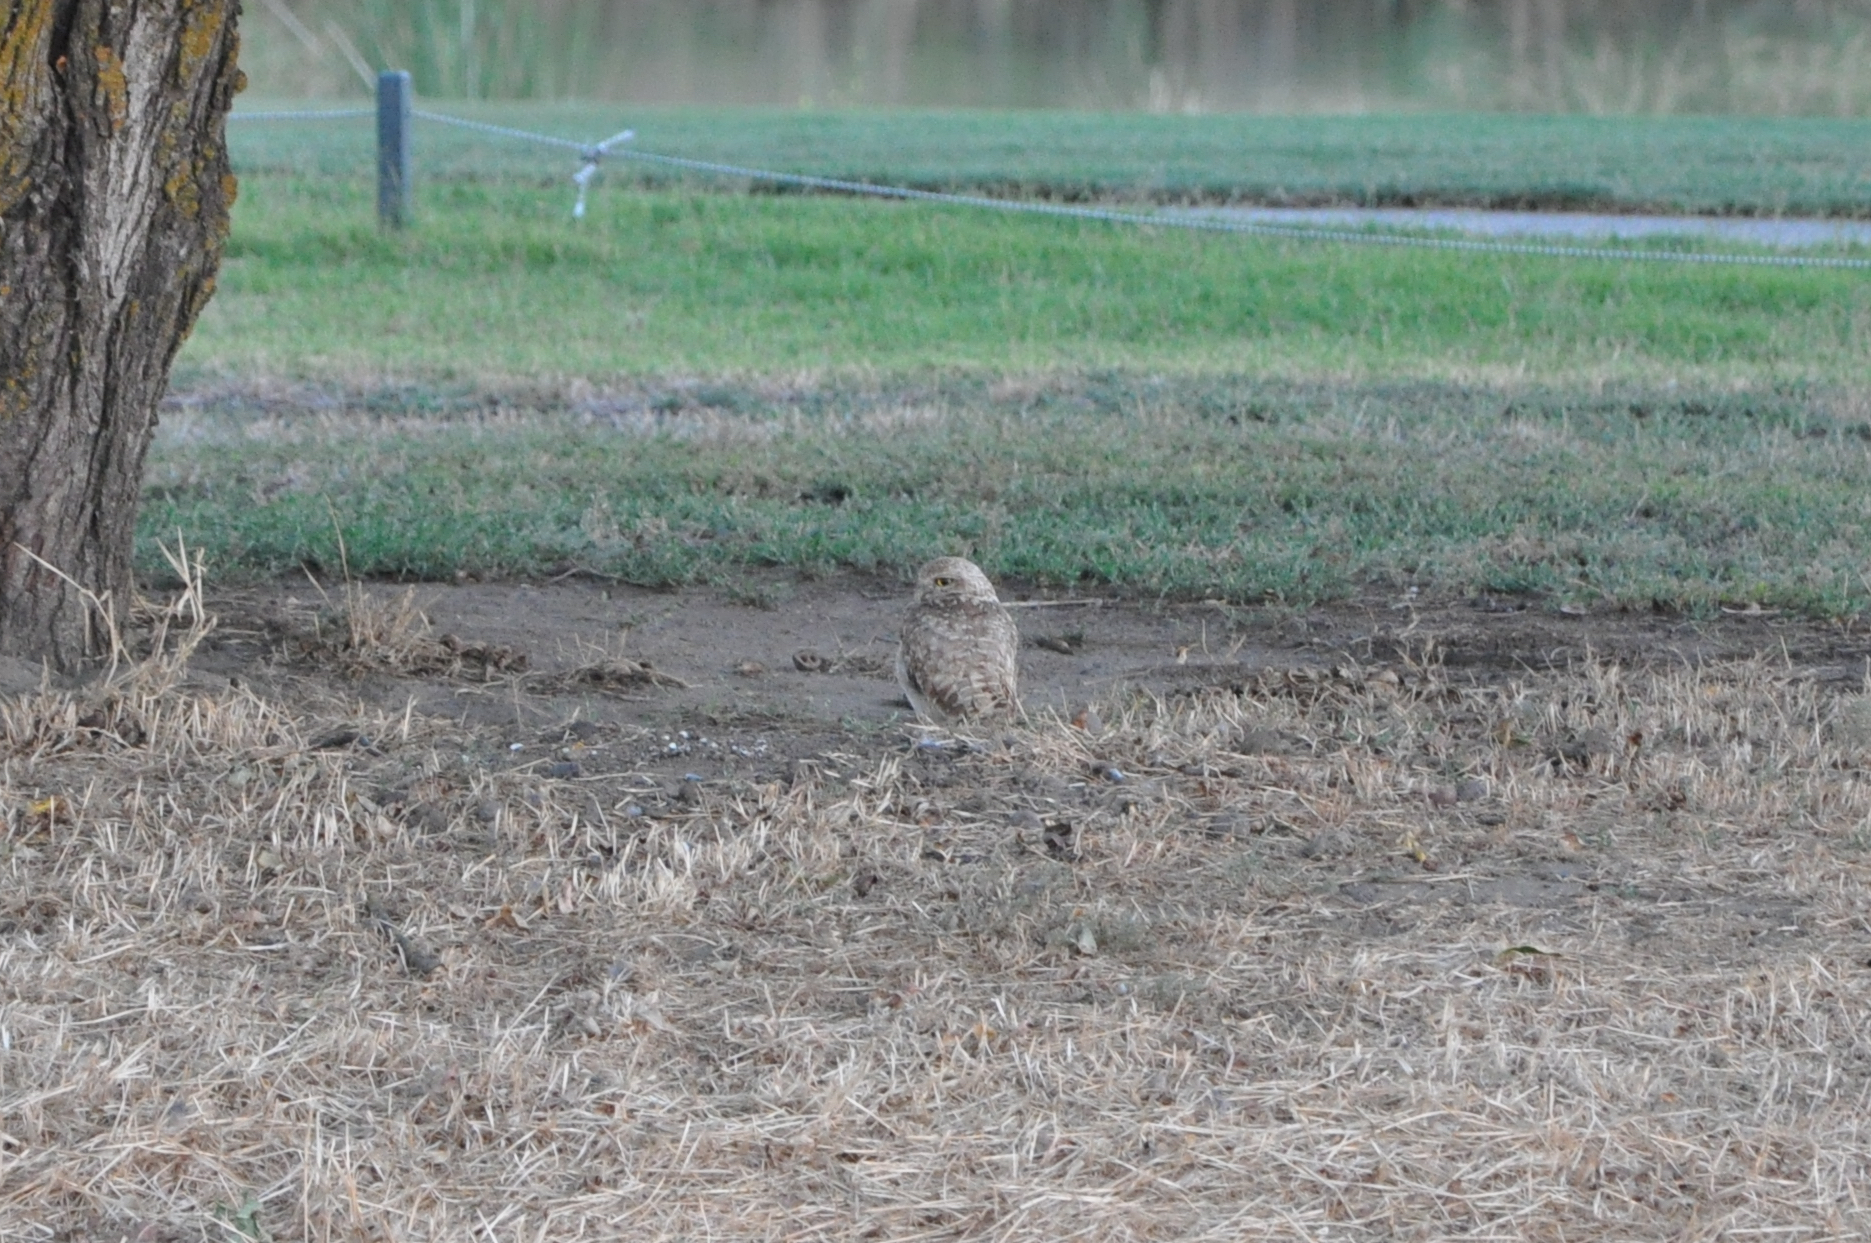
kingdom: Animalia
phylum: Chordata
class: Aves
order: Strigiformes
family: Strigidae
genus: Athene
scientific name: Athene cunicularia
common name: Burrowing owl
